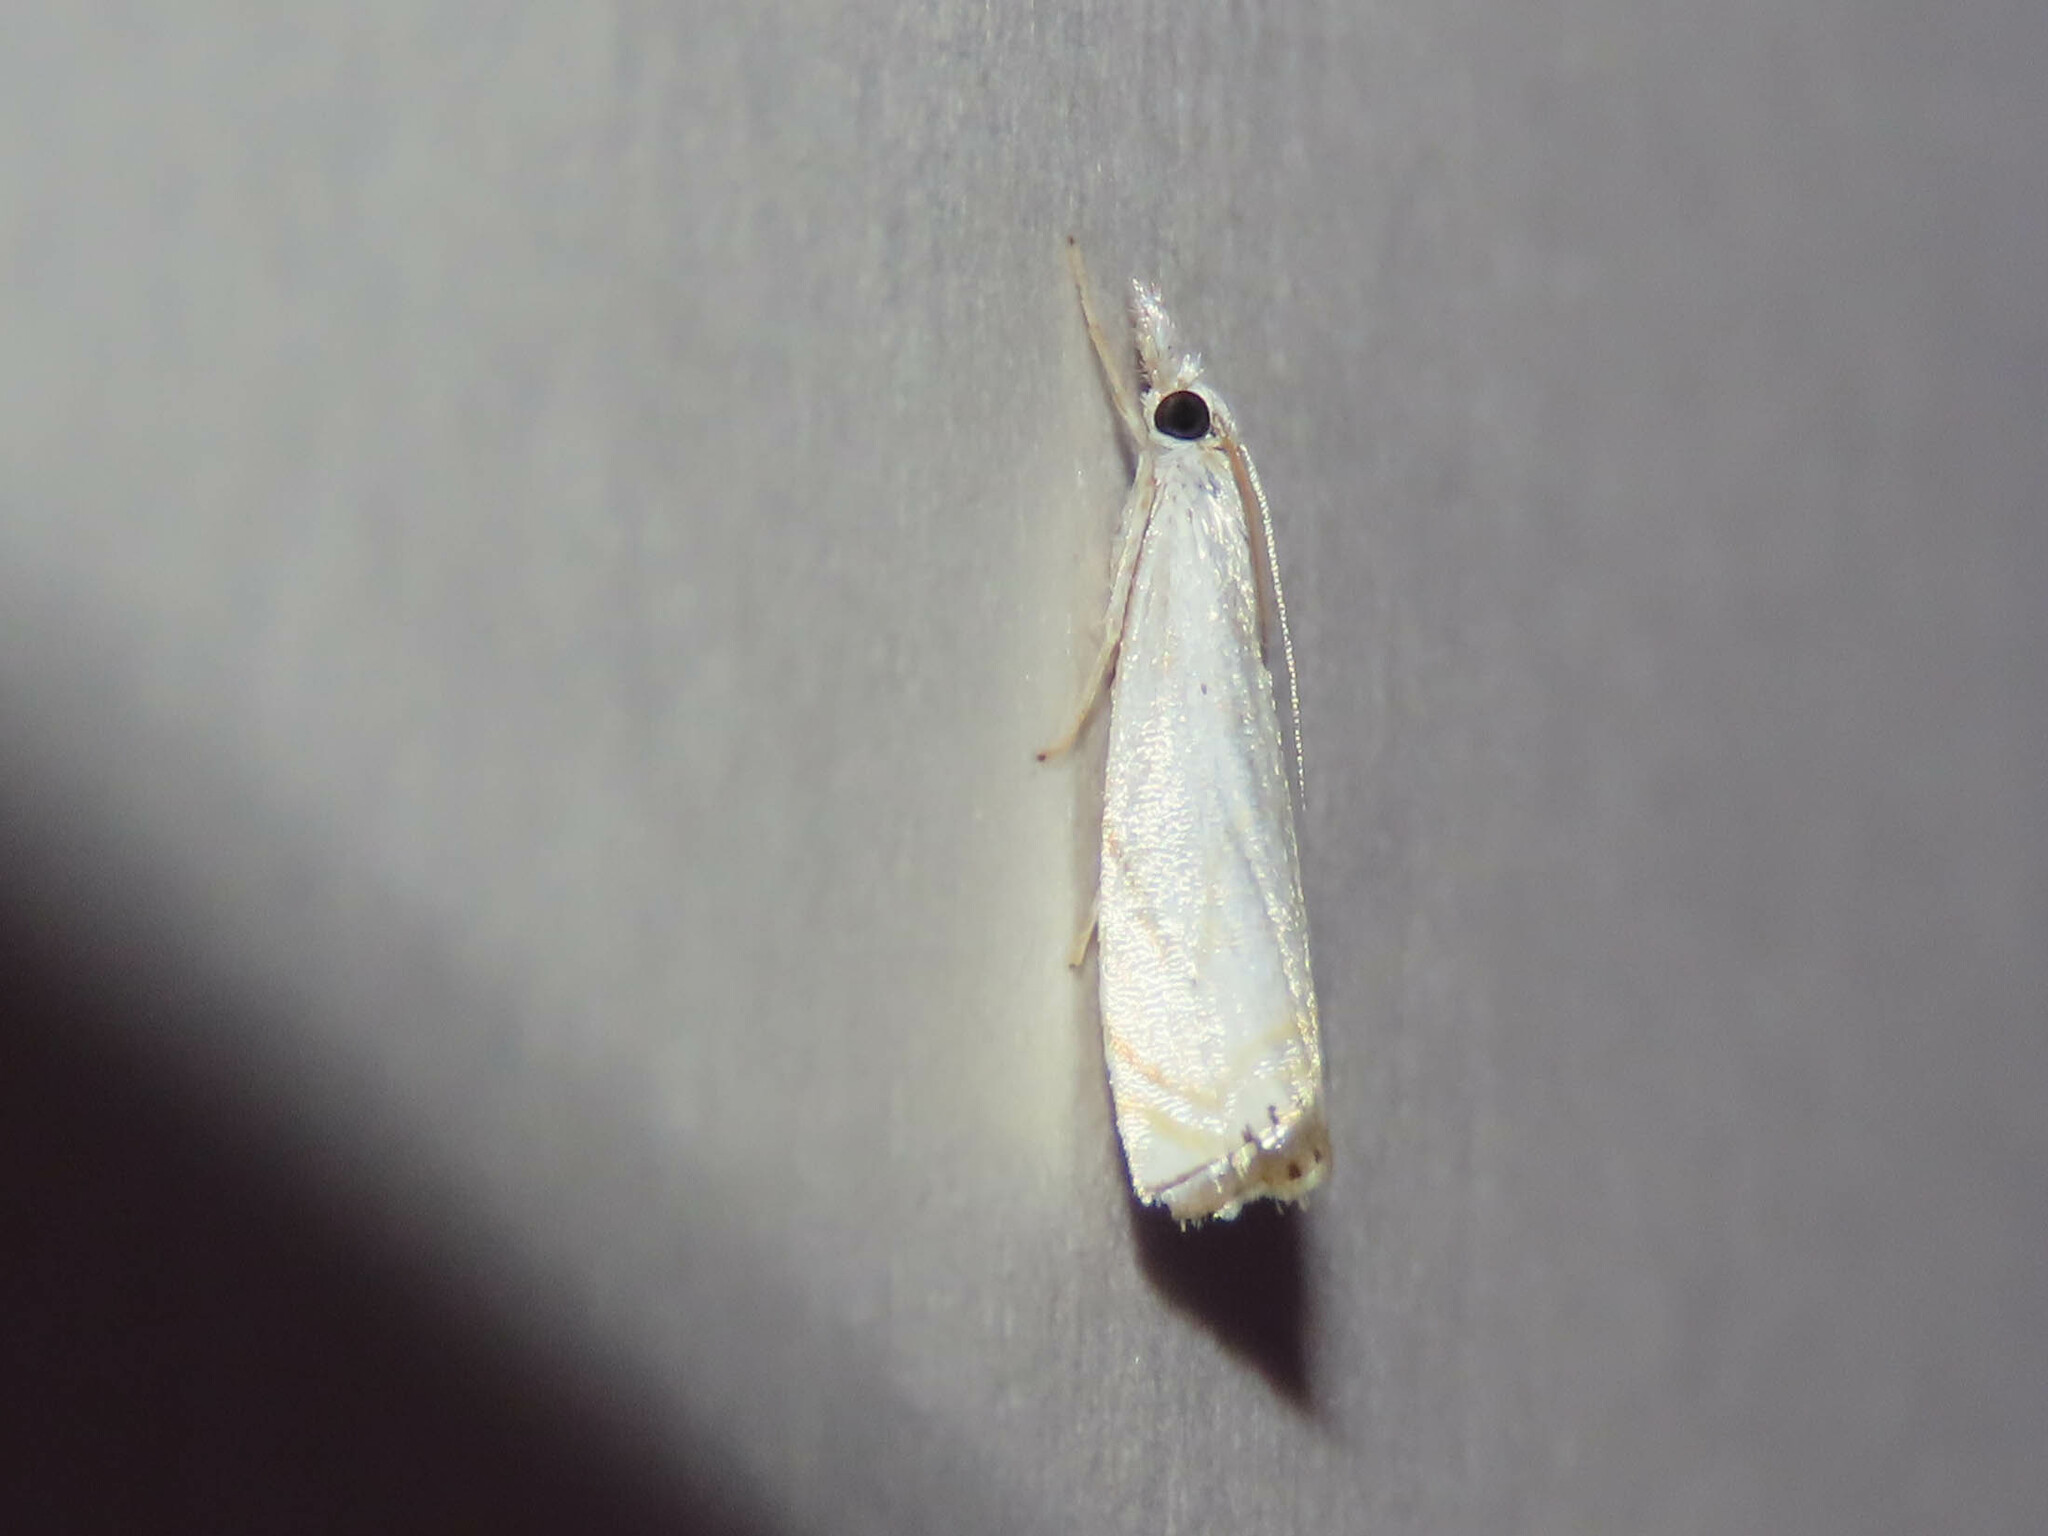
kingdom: Animalia
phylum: Arthropoda
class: Insecta
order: Lepidoptera
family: Crambidae
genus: Crambus
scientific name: Crambus albellus
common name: Small white grass-veneer
